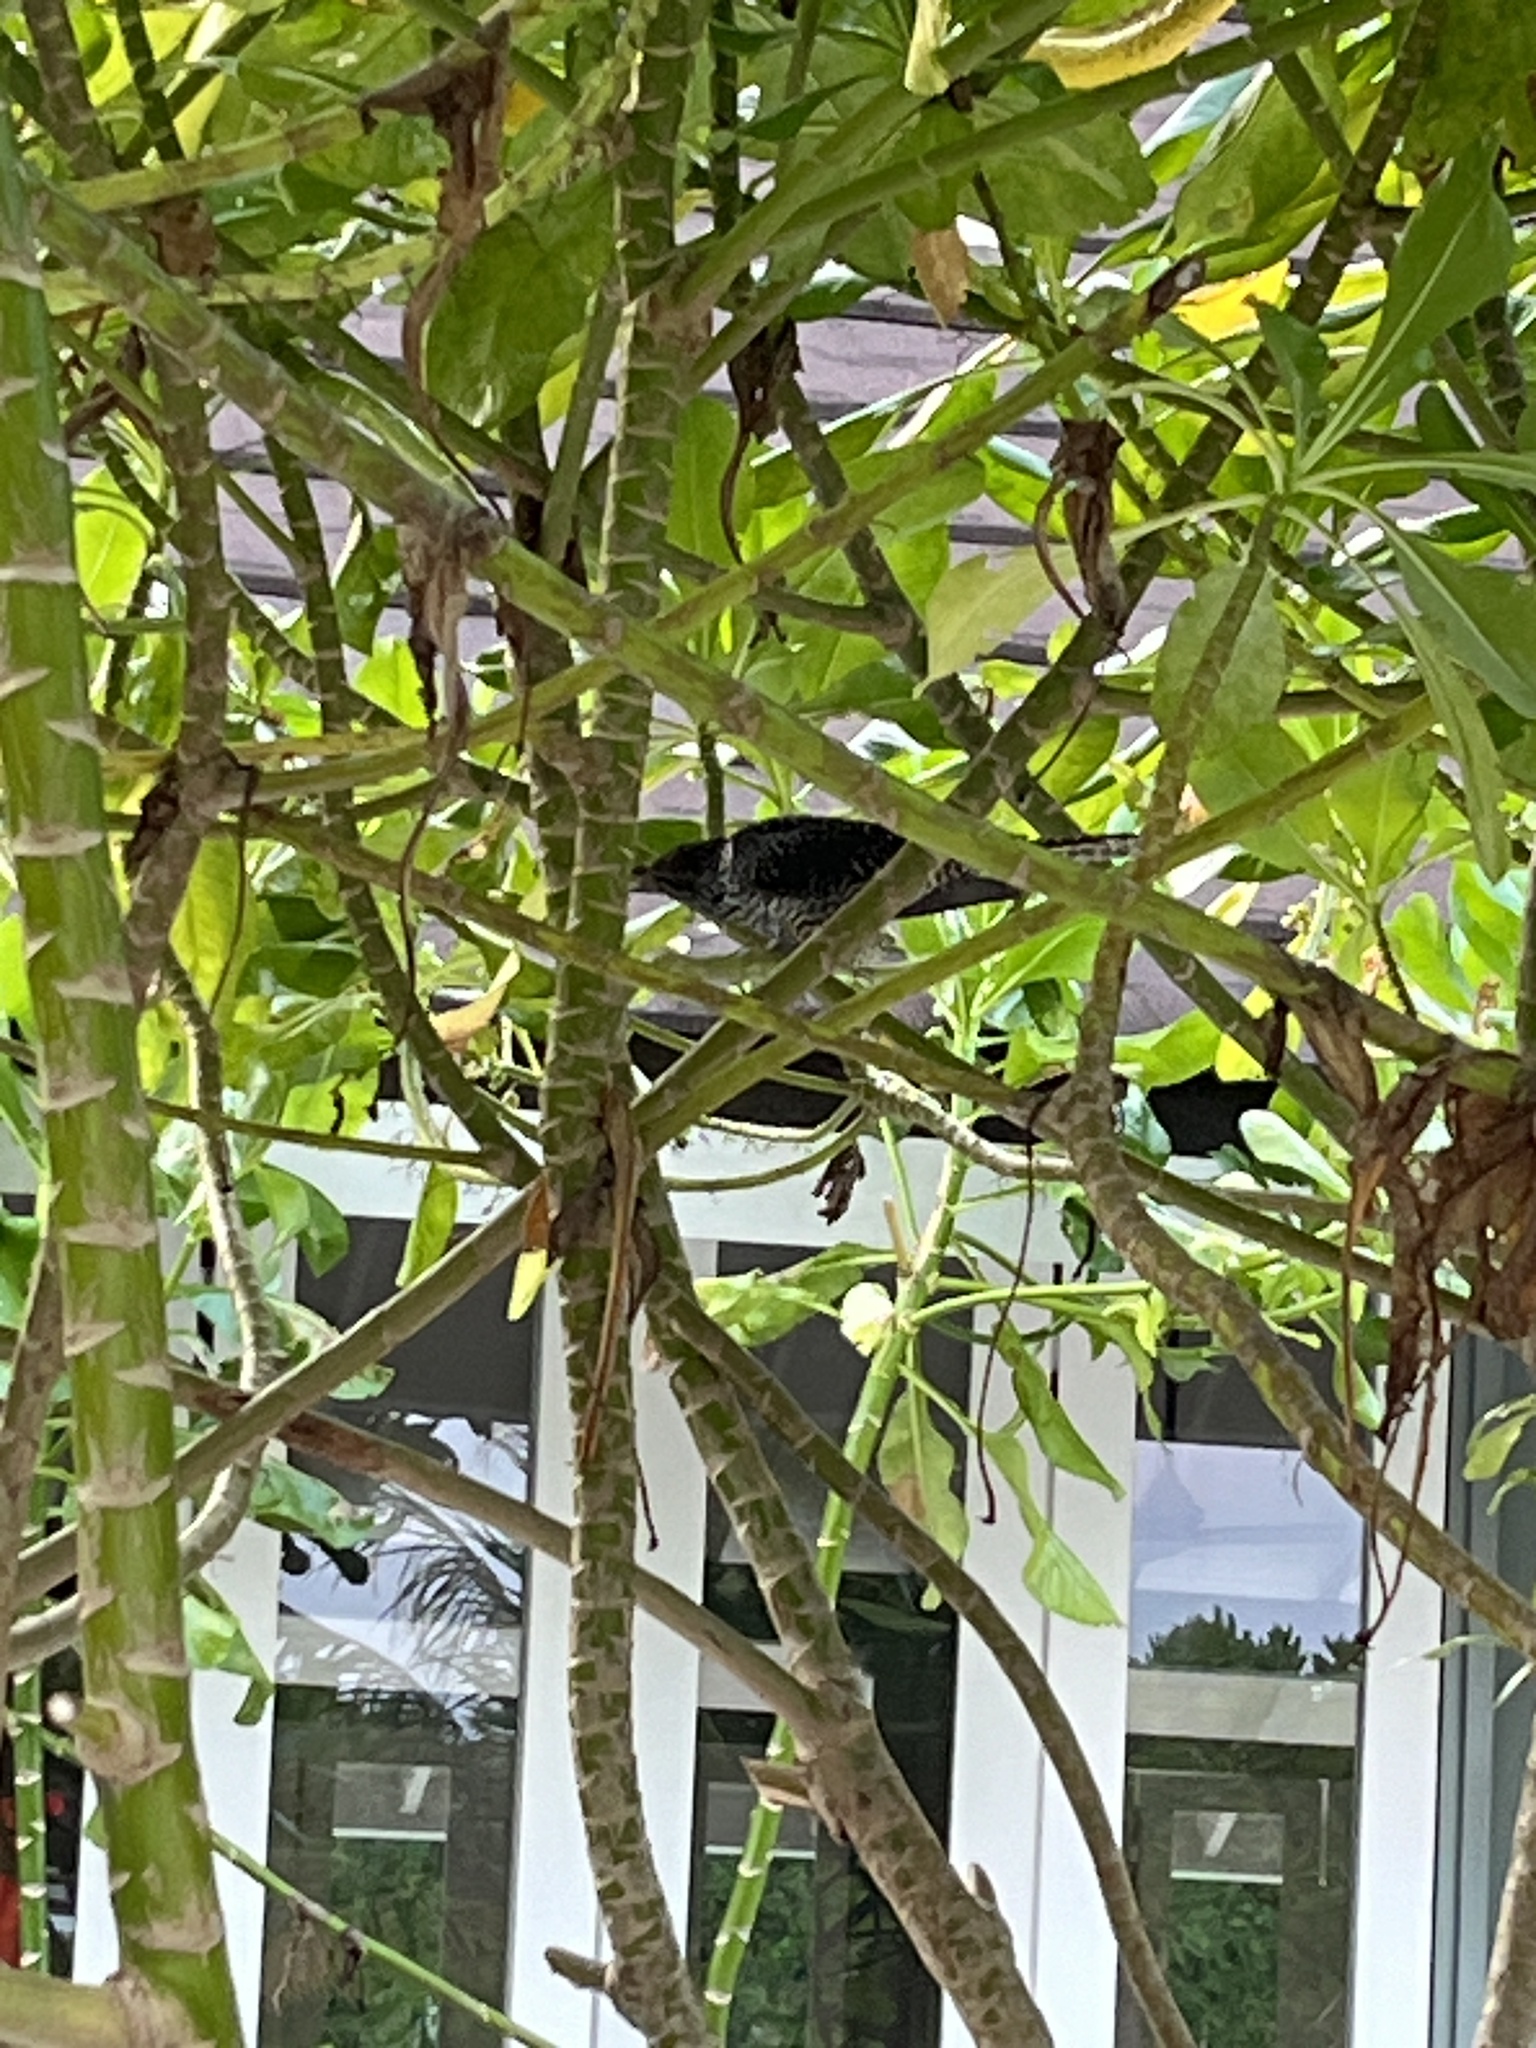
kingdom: Animalia
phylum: Chordata
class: Aves
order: Cuculiformes
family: Cuculidae
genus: Eudynamys
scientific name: Eudynamys scolopaceus
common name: Asian koel
